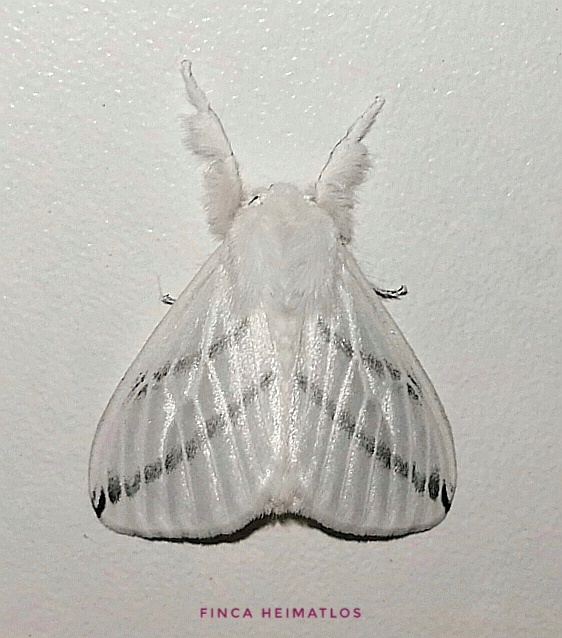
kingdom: Animalia
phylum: Arthropoda
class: Insecta
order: Lepidoptera
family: Erebidae
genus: Thagona
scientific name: Thagona crassilinea
